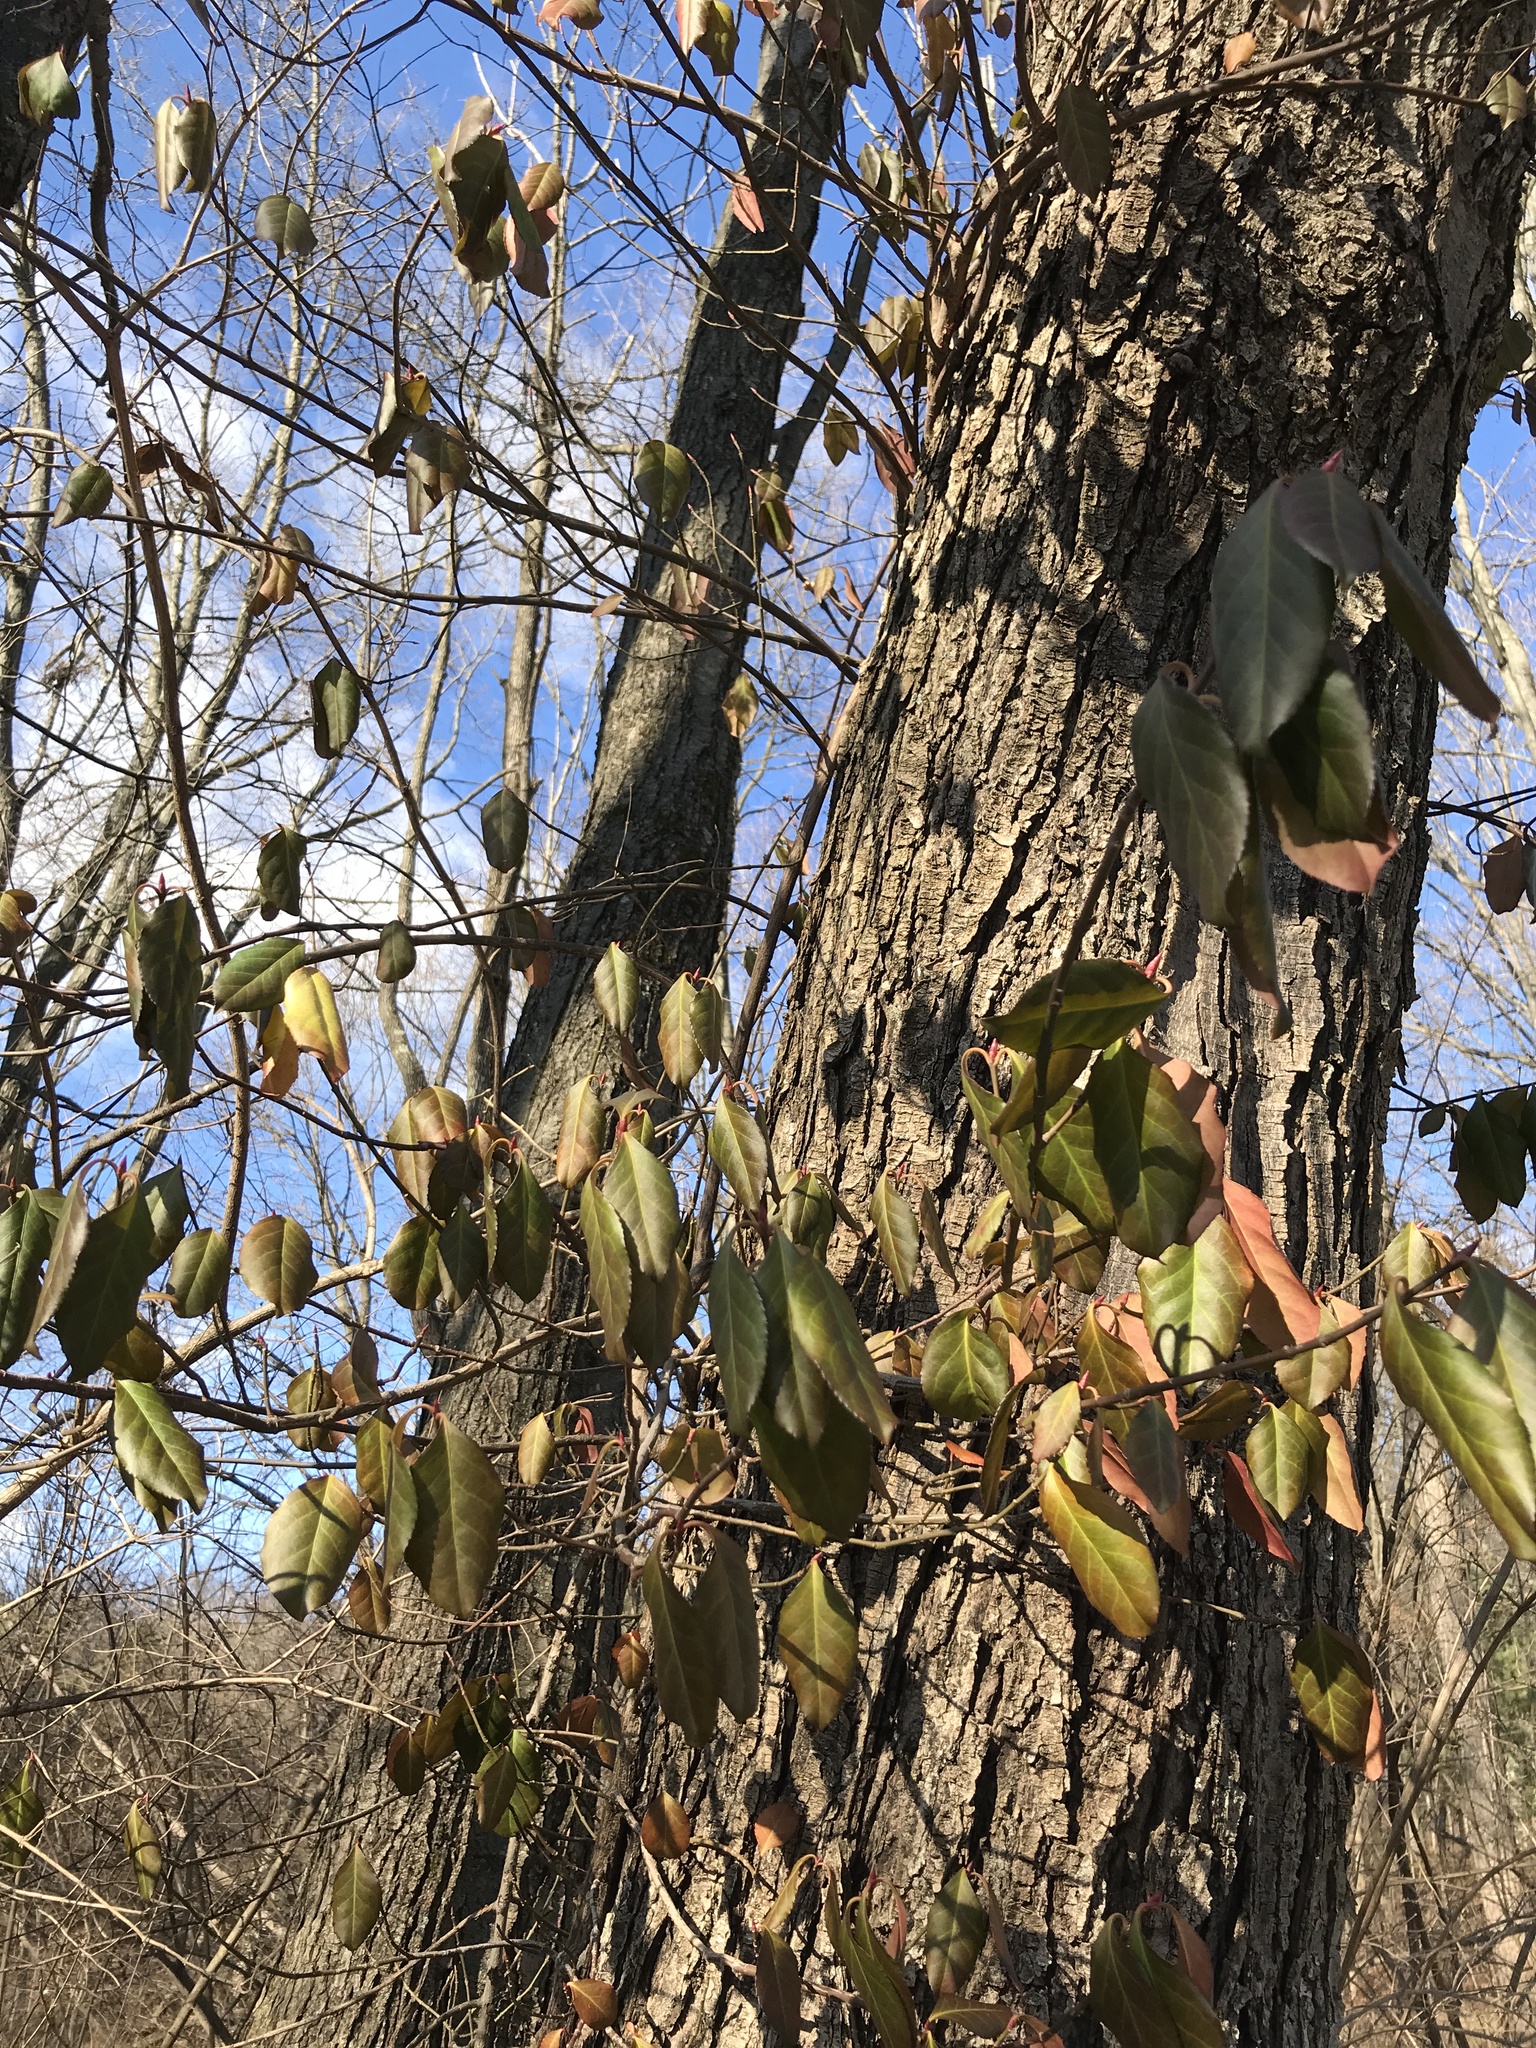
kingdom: Plantae
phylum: Tracheophyta
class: Magnoliopsida
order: Celastrales
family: Celastraceae
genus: Euonymus
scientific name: Euonymus fortunei
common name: Climbing euonymus
